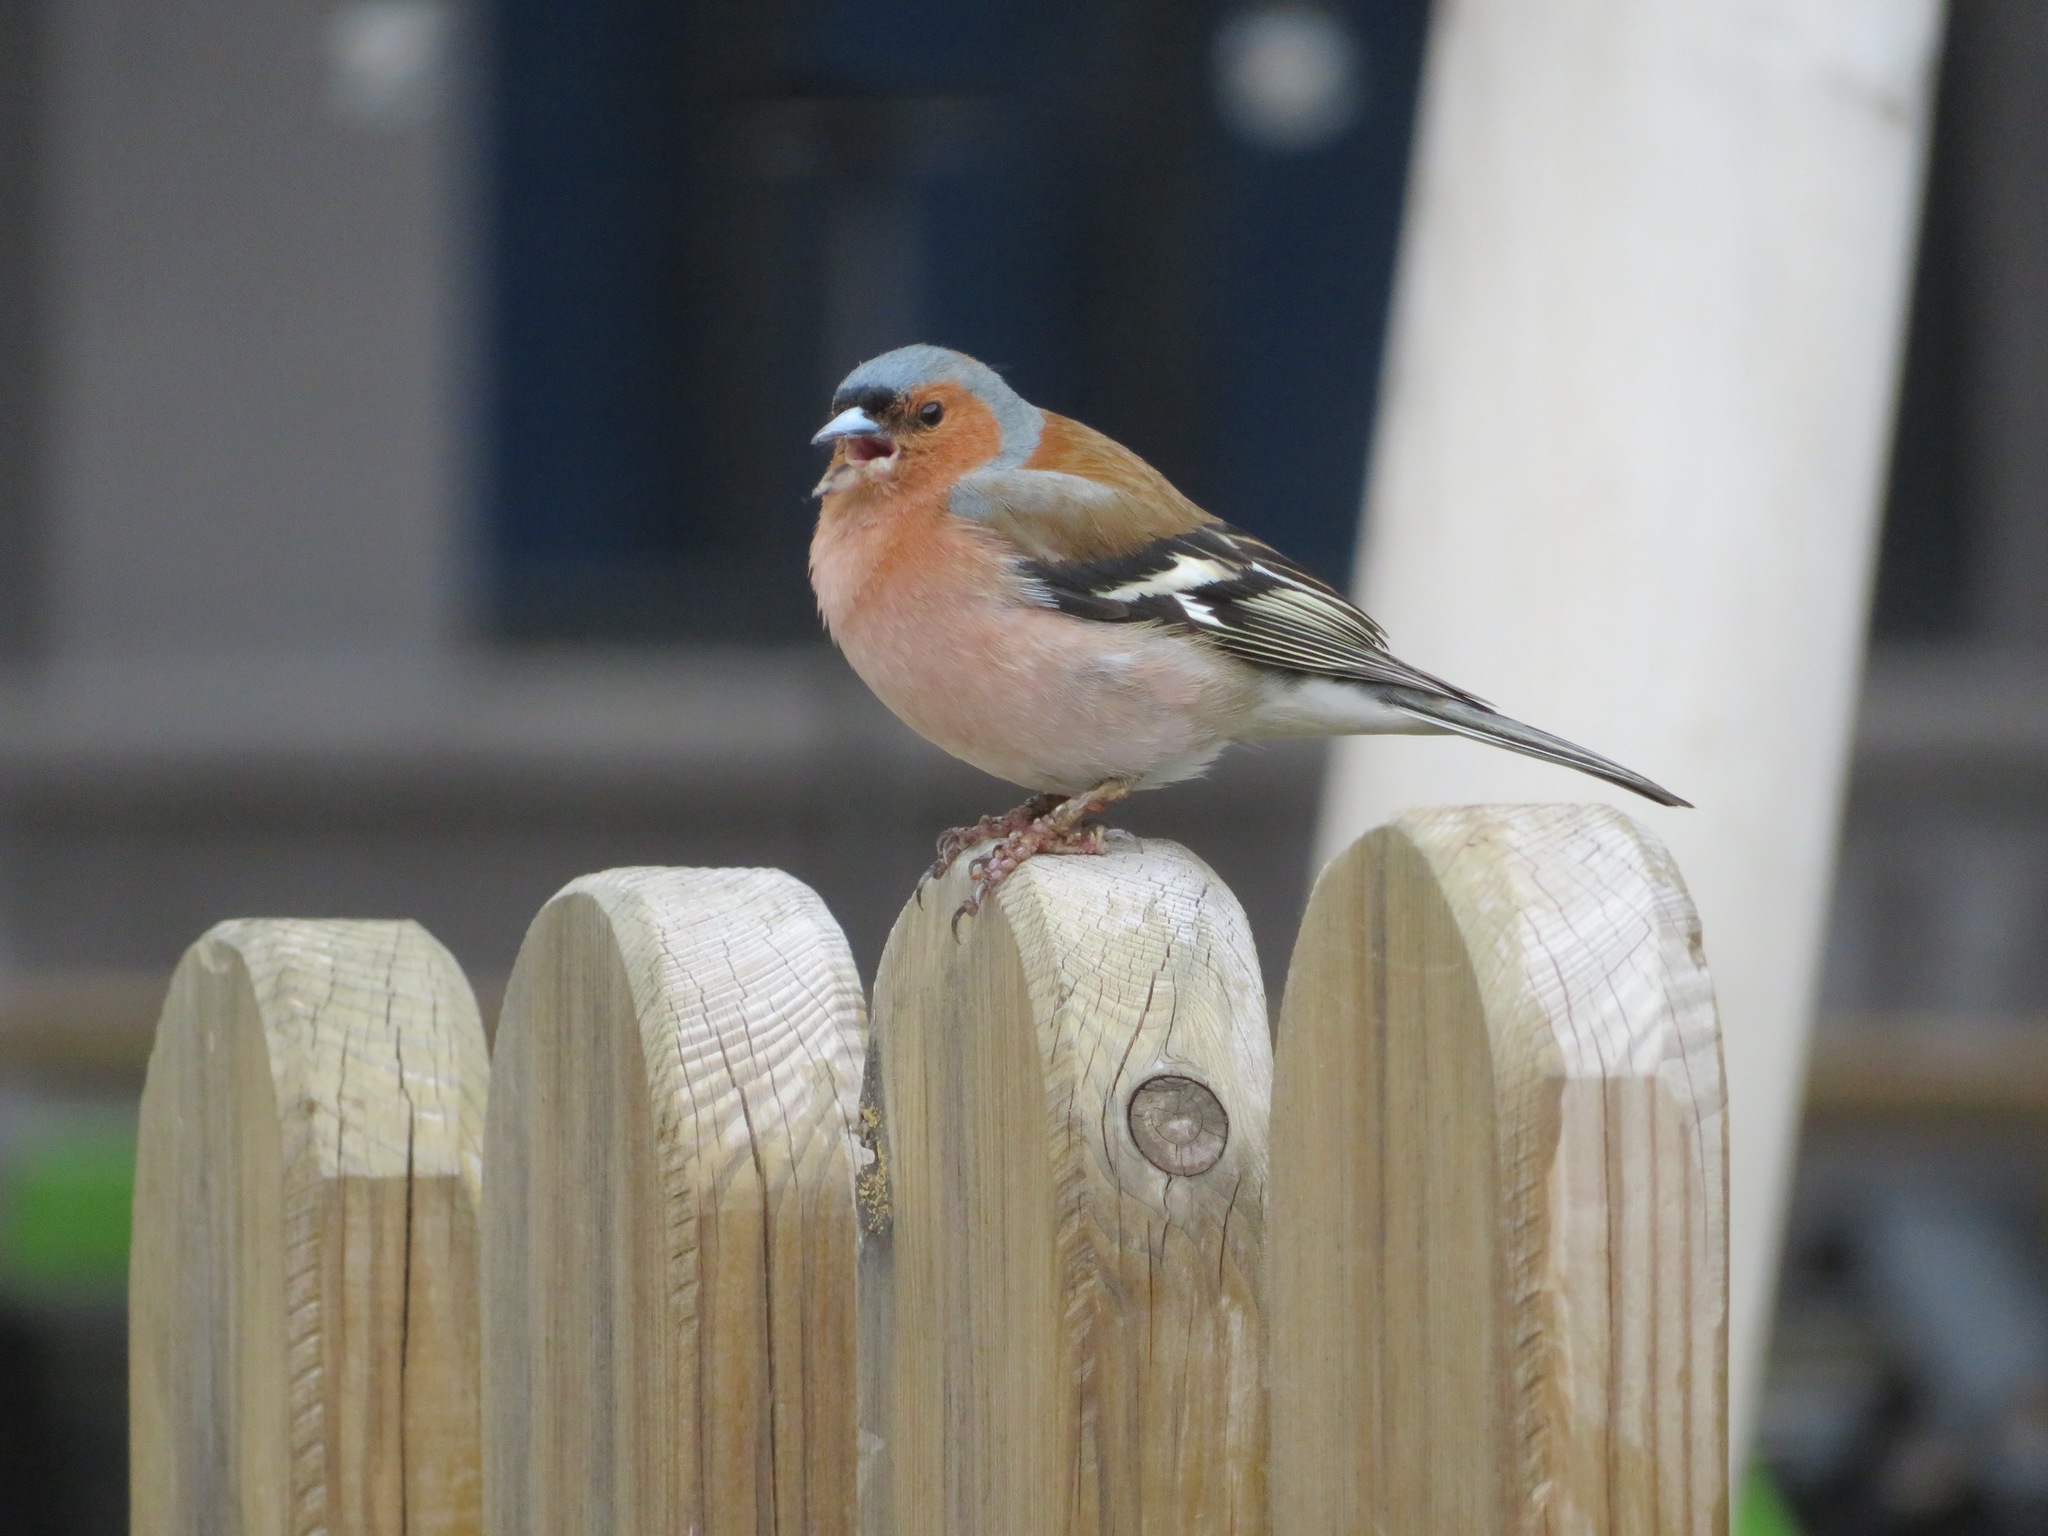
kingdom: Animalia
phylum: Chordata
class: Aves
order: Passeriformes
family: Fringillidae
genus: Fringilla
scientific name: Fringilla coelebs
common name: Common chaffinch
